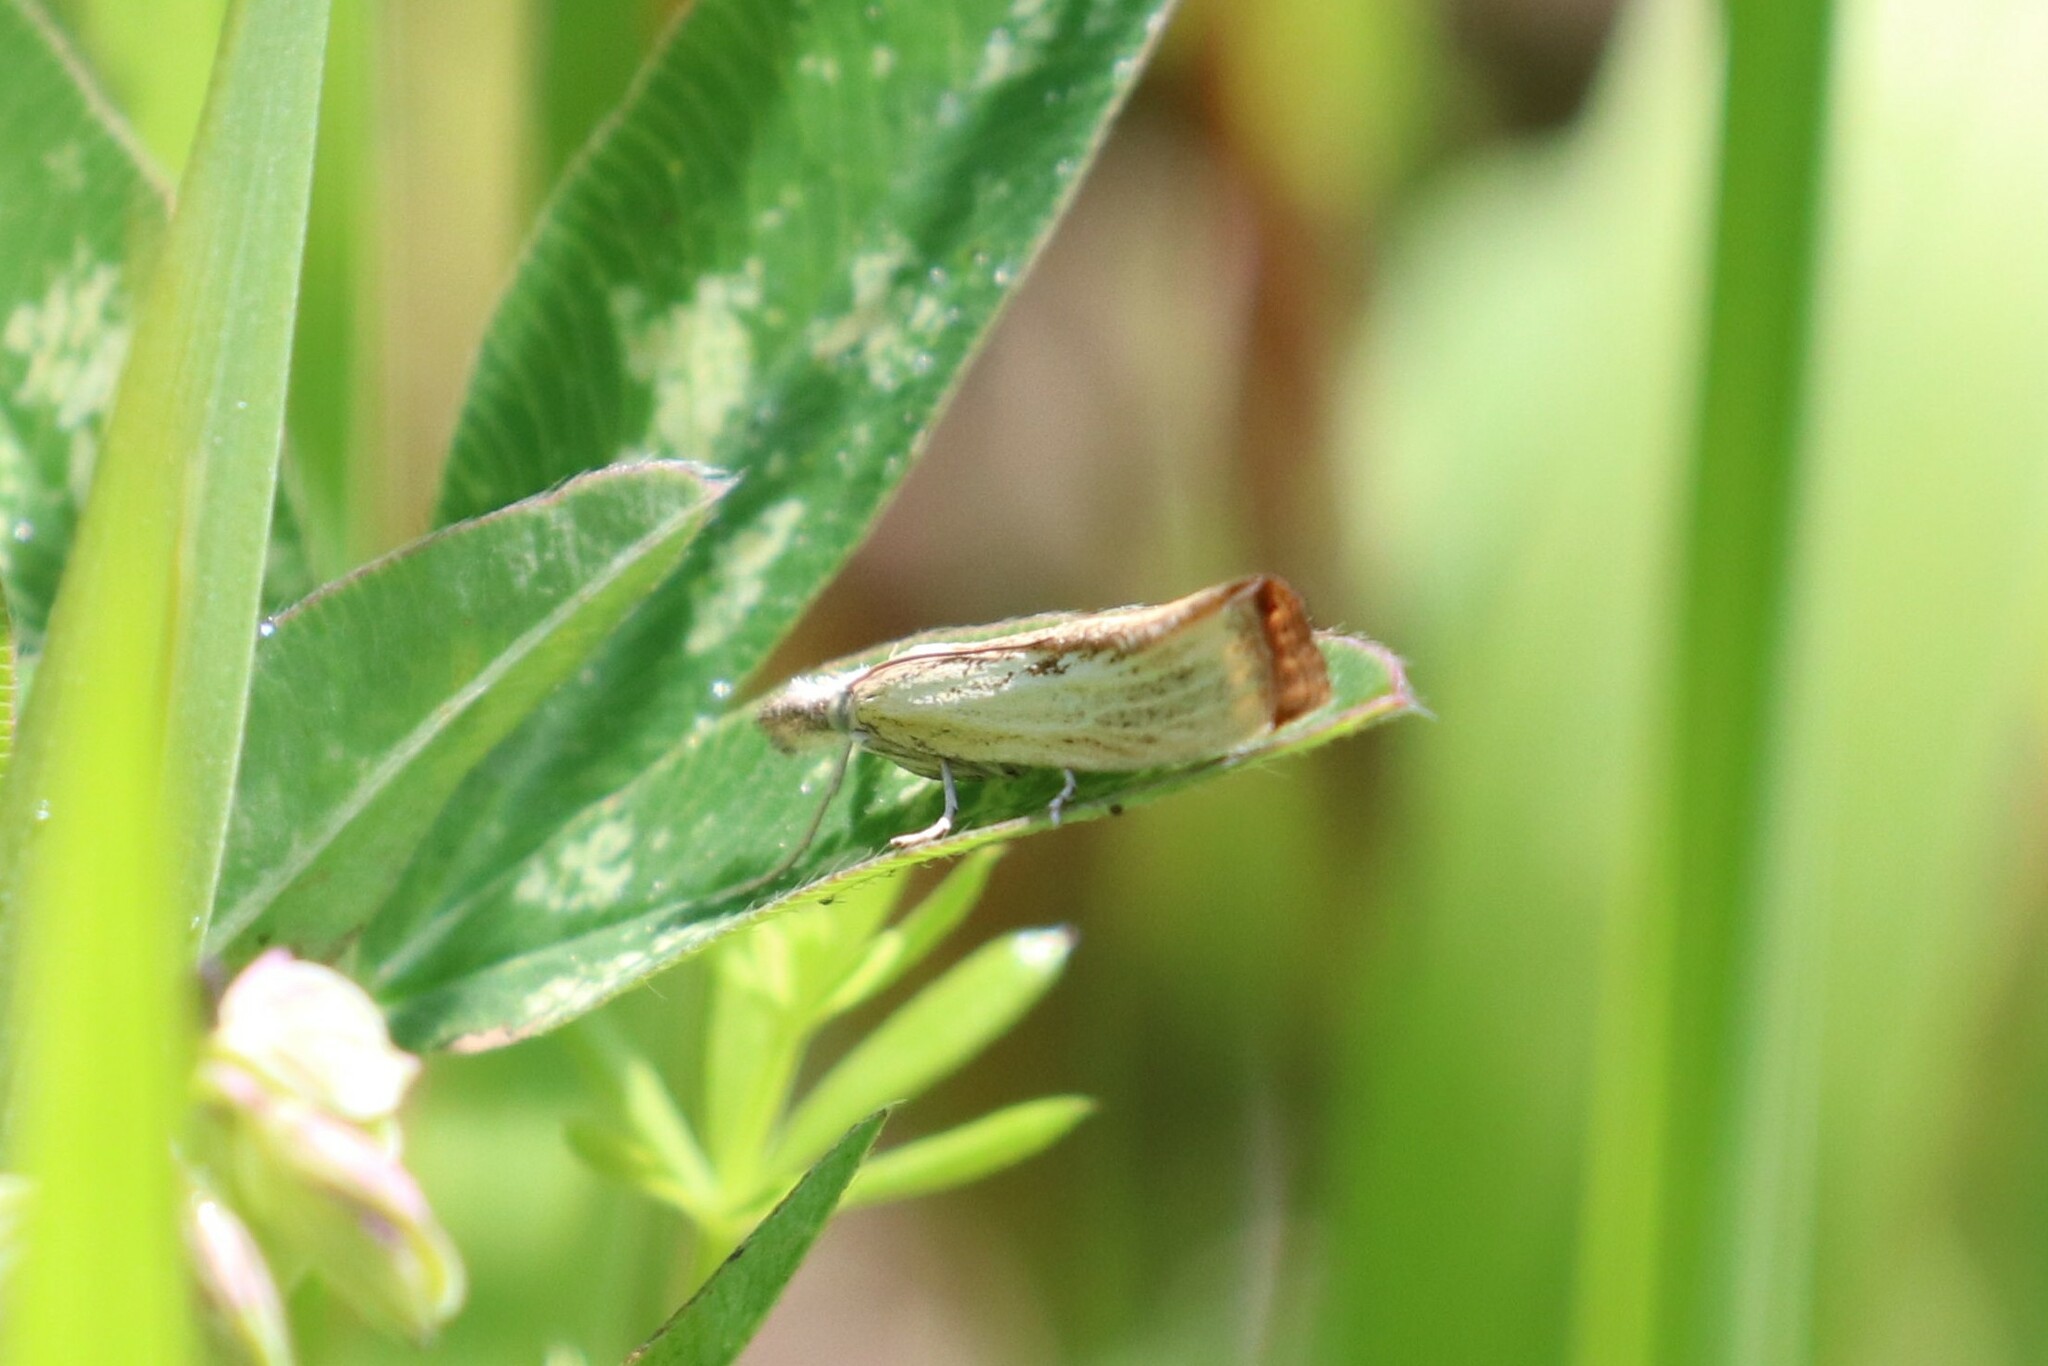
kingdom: Animalia
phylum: Arthropoda
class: Insecta
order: Lepidoptera
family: Crambidae
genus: Agriphila
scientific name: Agriphila straminella
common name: Straw grass-veneer
